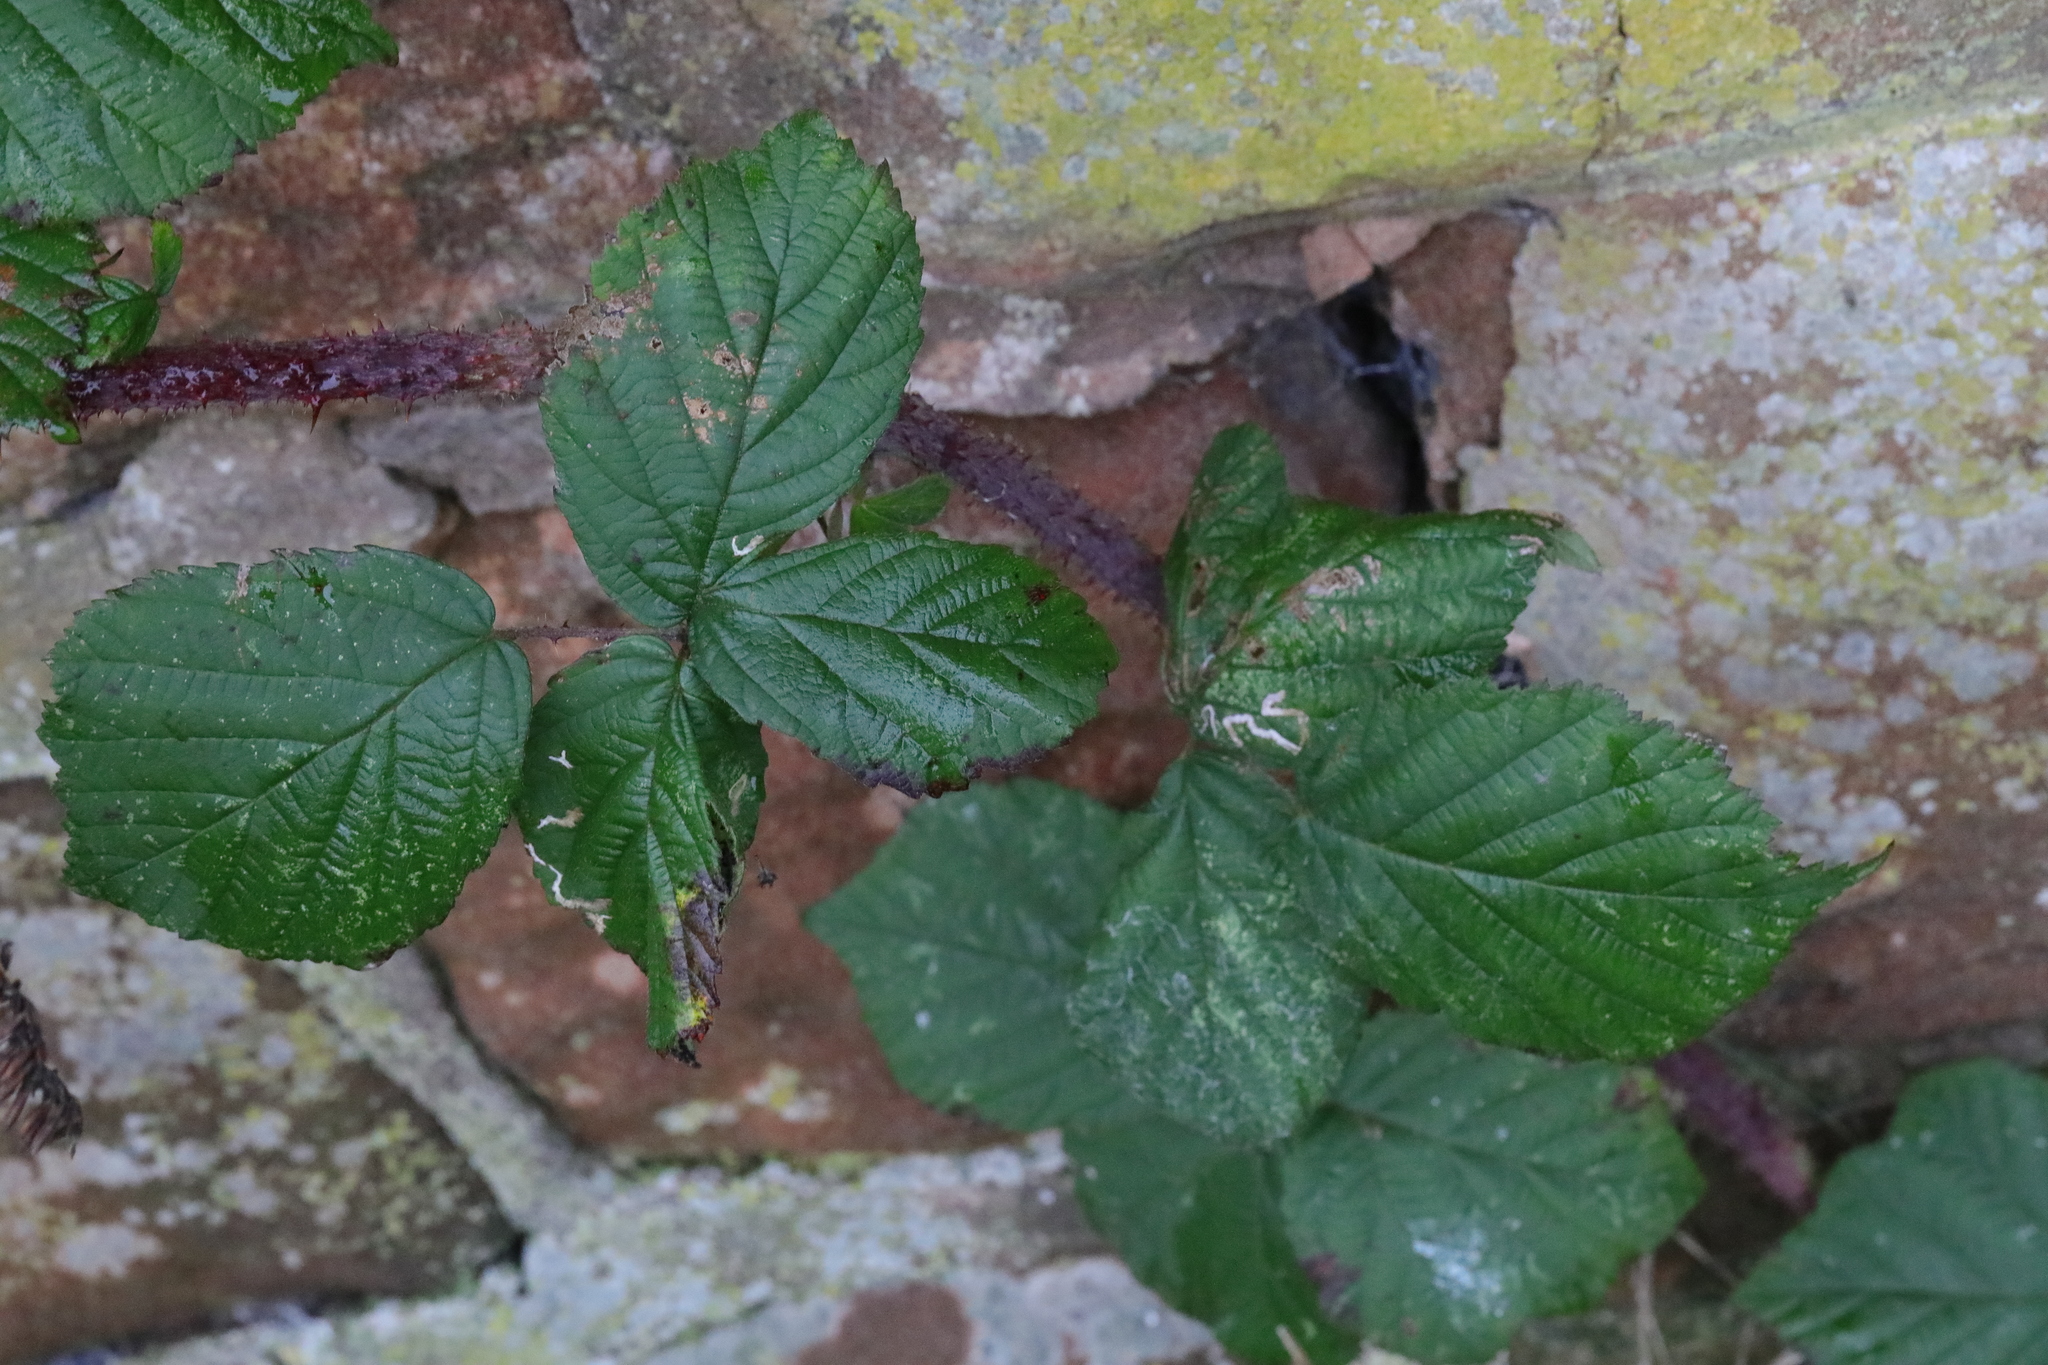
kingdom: Plantae
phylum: Tracheophyta
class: Magnoliopsida
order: Rosales
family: Rosaceae
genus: Rubus
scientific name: Rubus horrefactus
